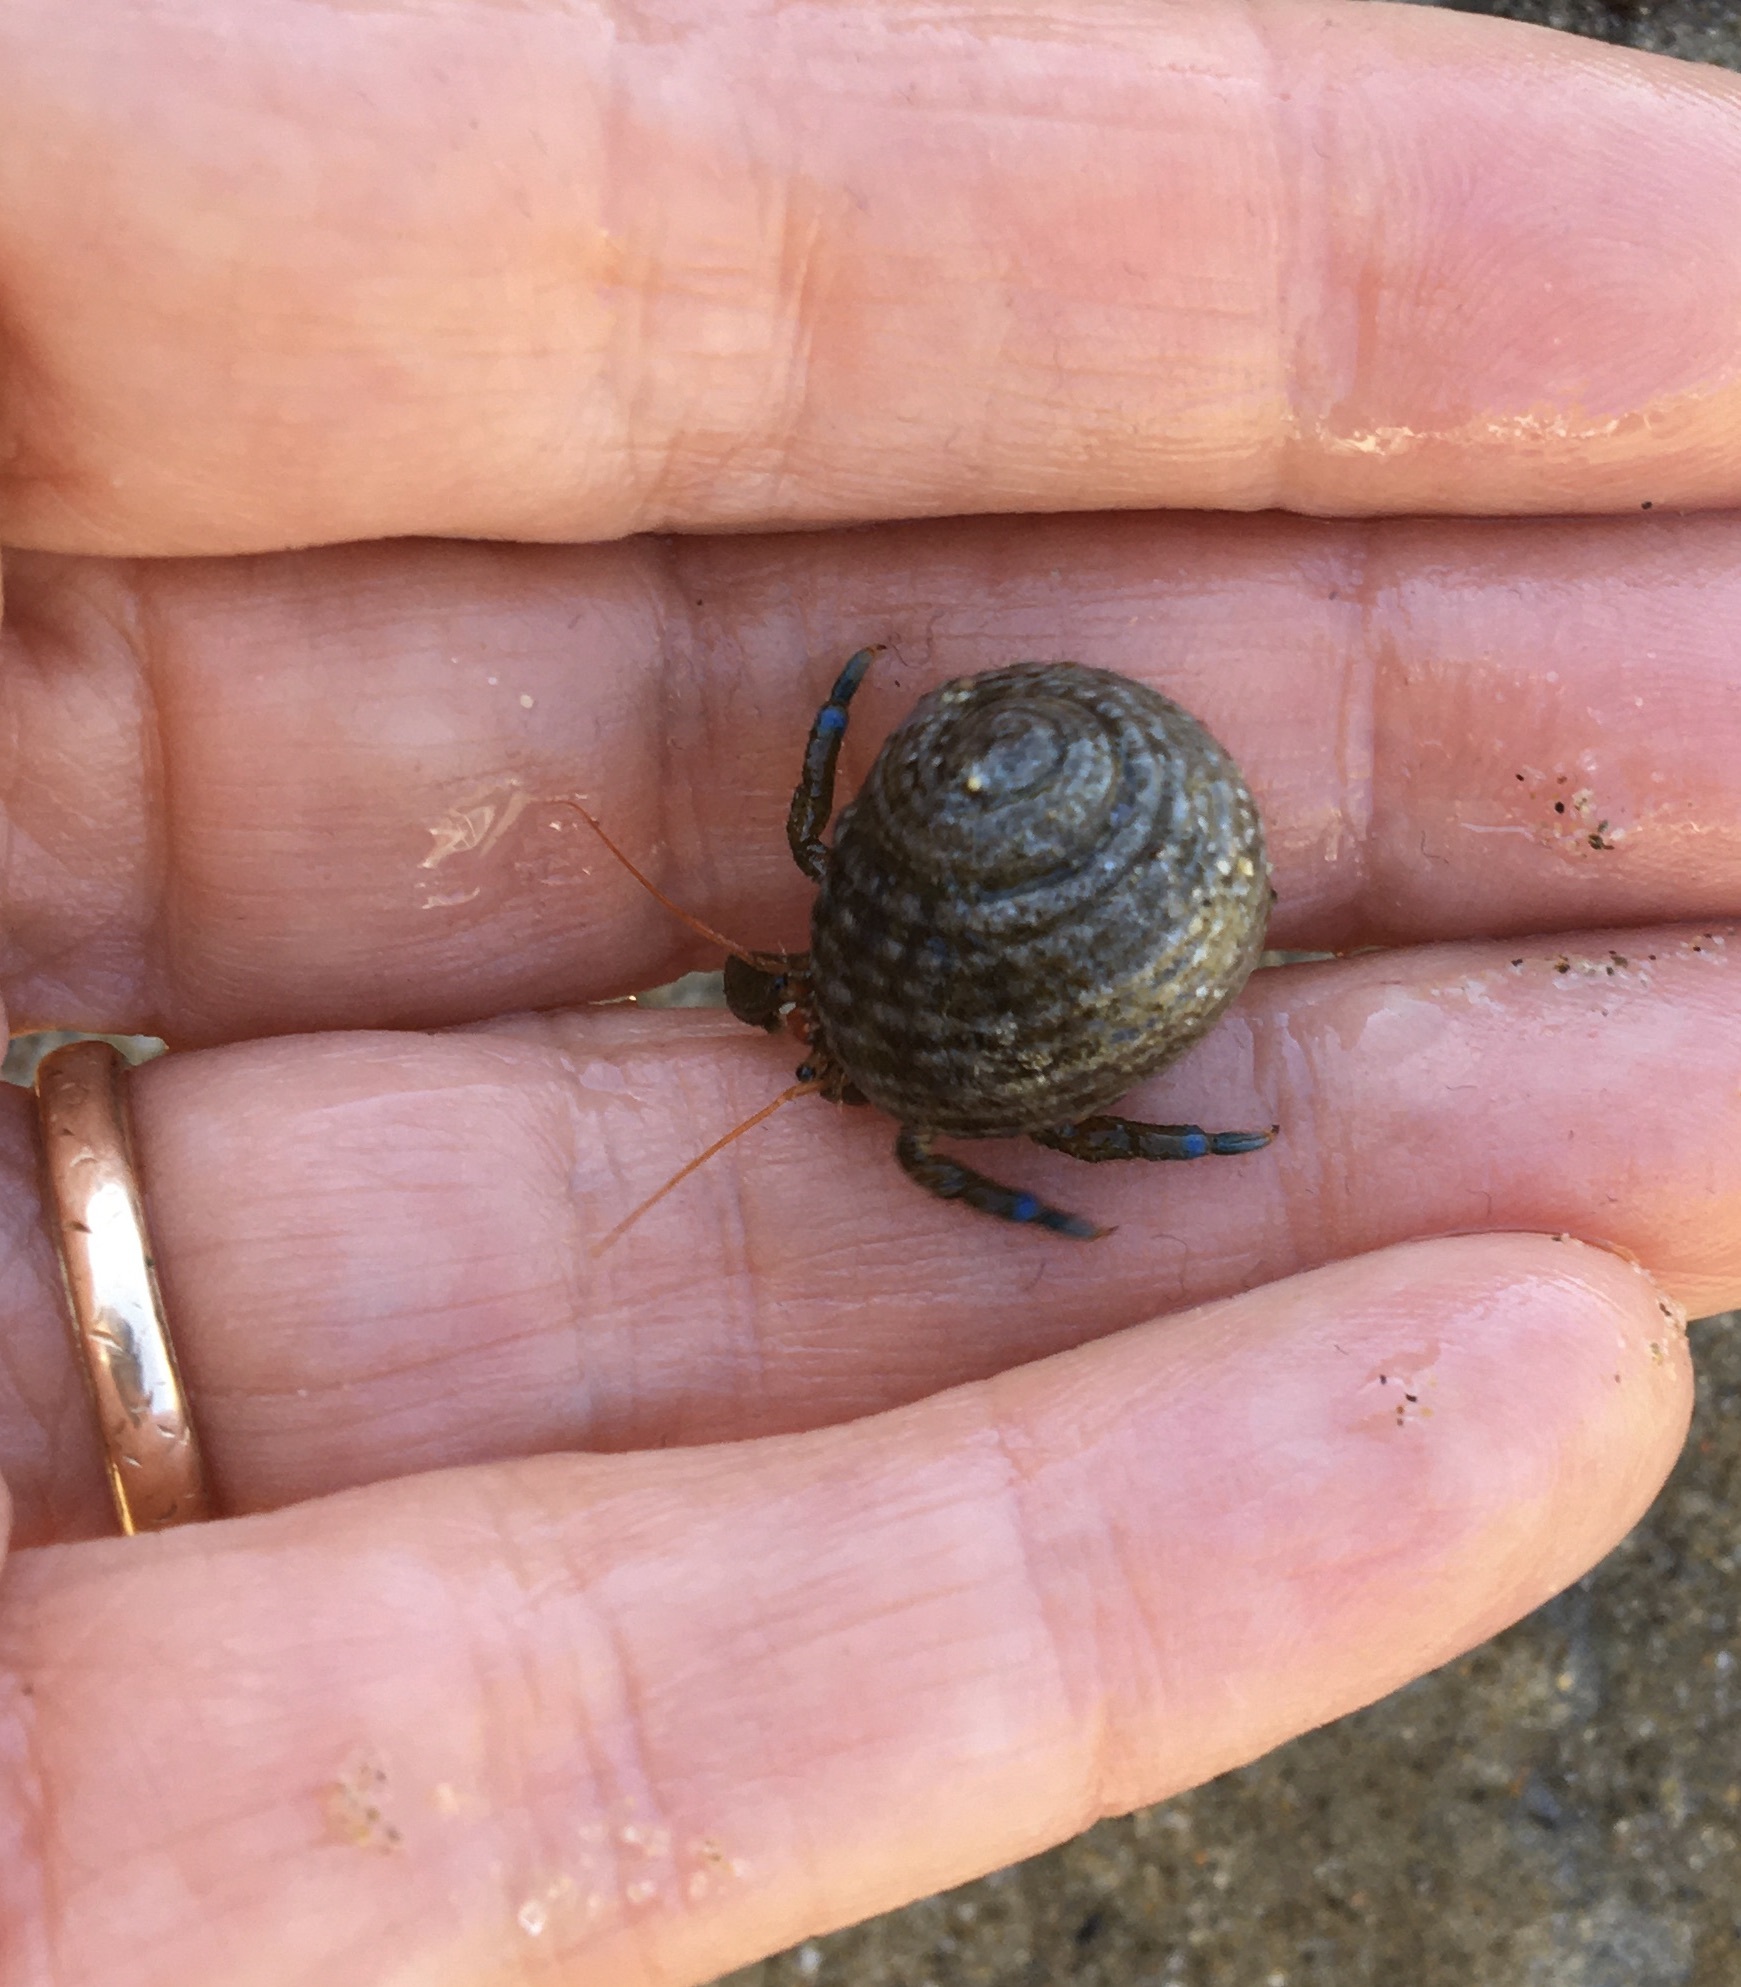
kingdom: Animalia
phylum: Mollusca
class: Gastropoda
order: Trochida
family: Tegulidae
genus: Tegula
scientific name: Tegula eiseni
